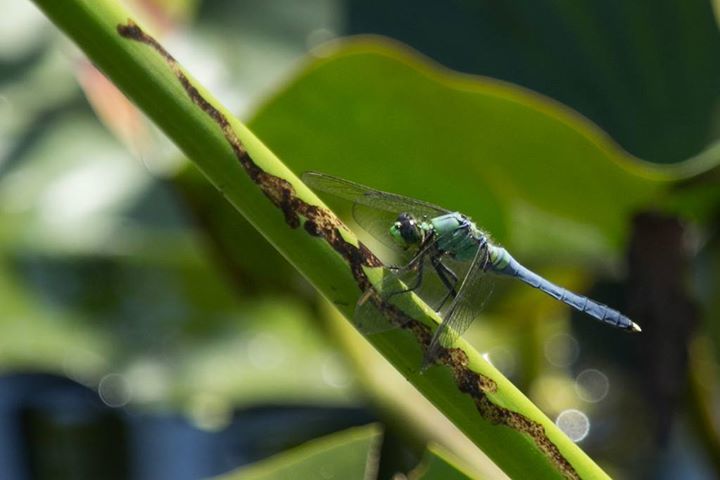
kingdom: Animalia
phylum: Arthropoda
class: Insecta
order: Odonata
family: Libellulidae
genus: Erythemis
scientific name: Erythemis simplicicollis
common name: Eastern pondhawk
